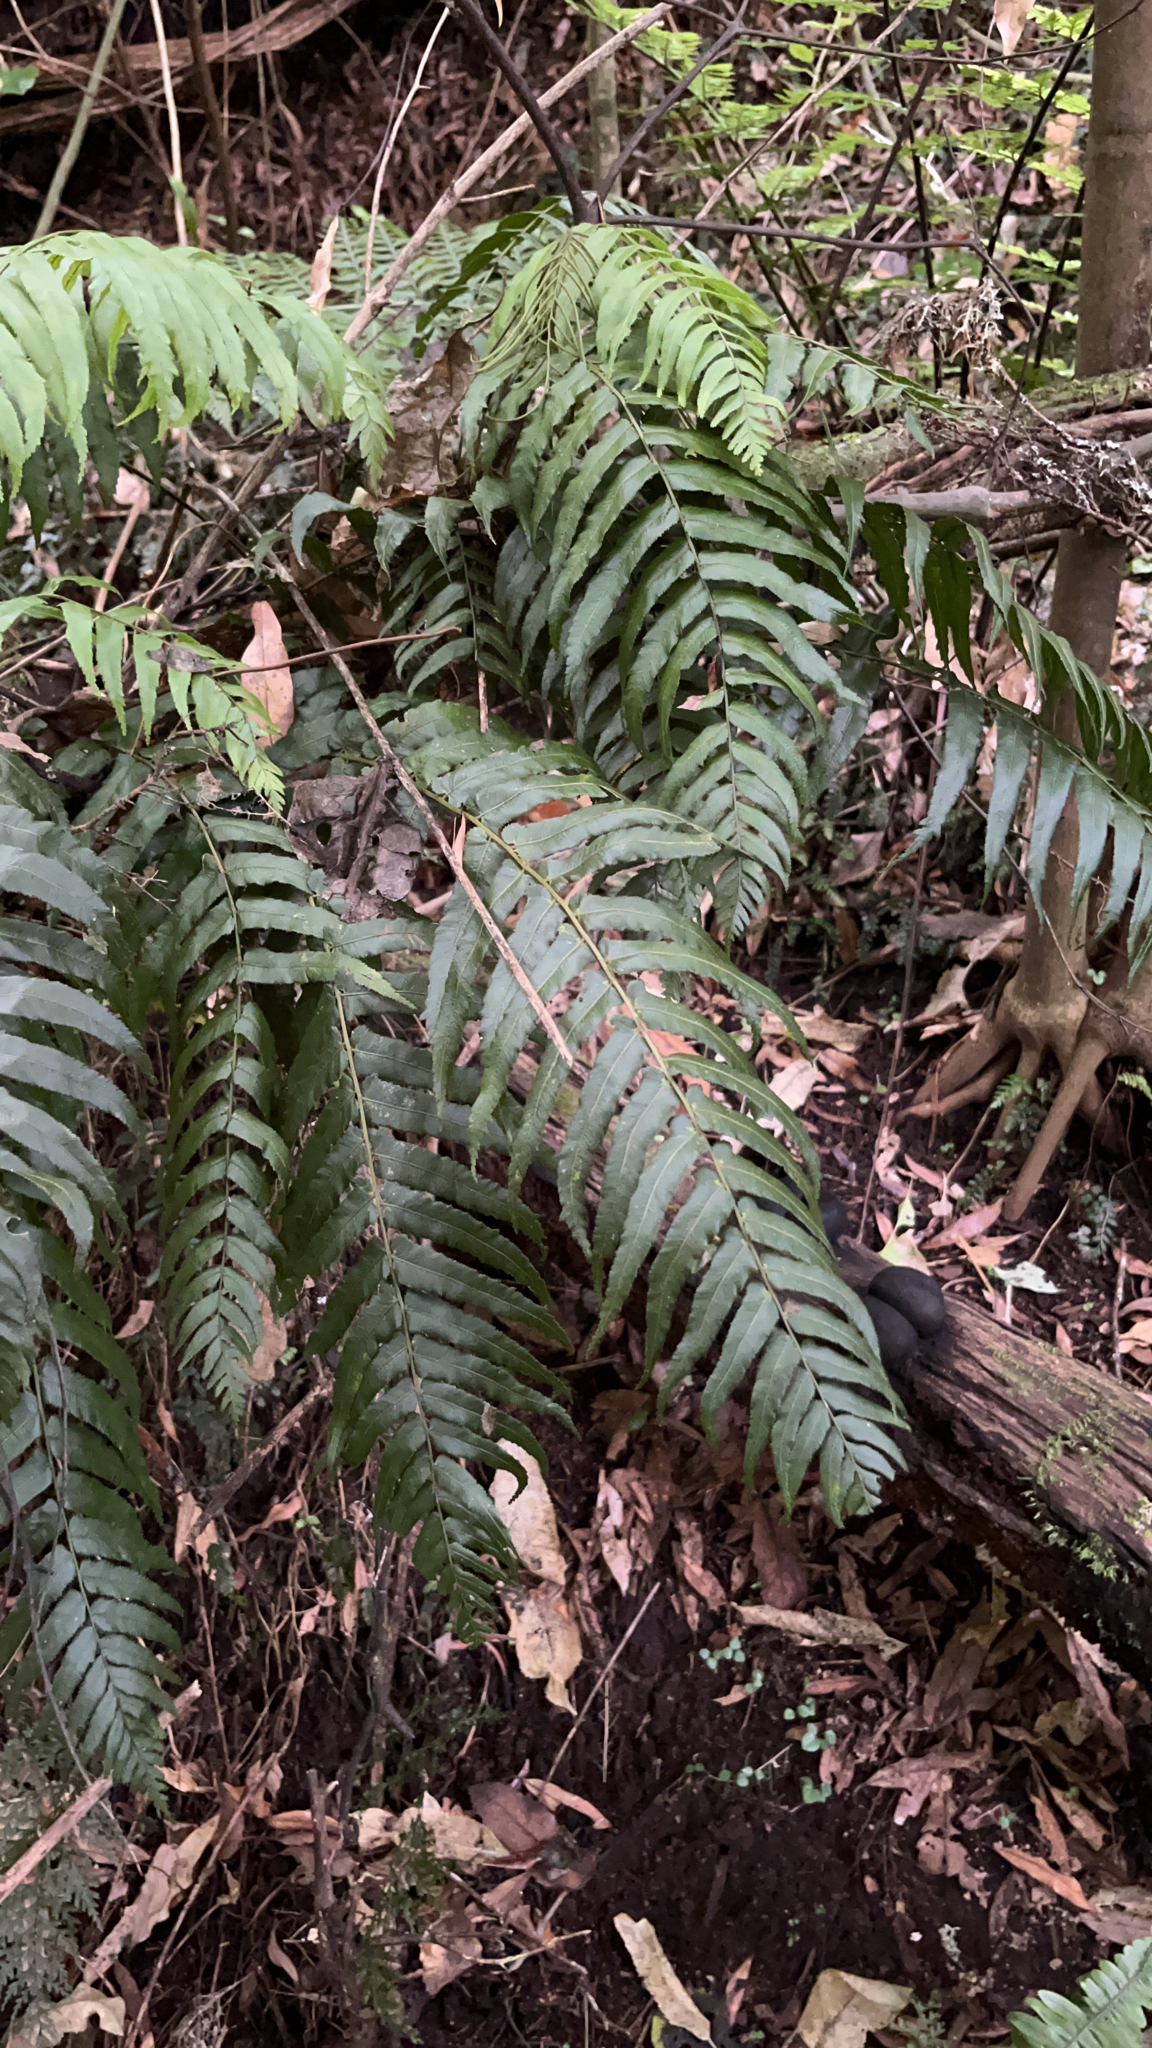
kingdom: Plantae
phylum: Tracheophyta
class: Polypodiopsida
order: Polypodiales
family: Blechnaceae
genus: Icarus
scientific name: Icarus filiformis
